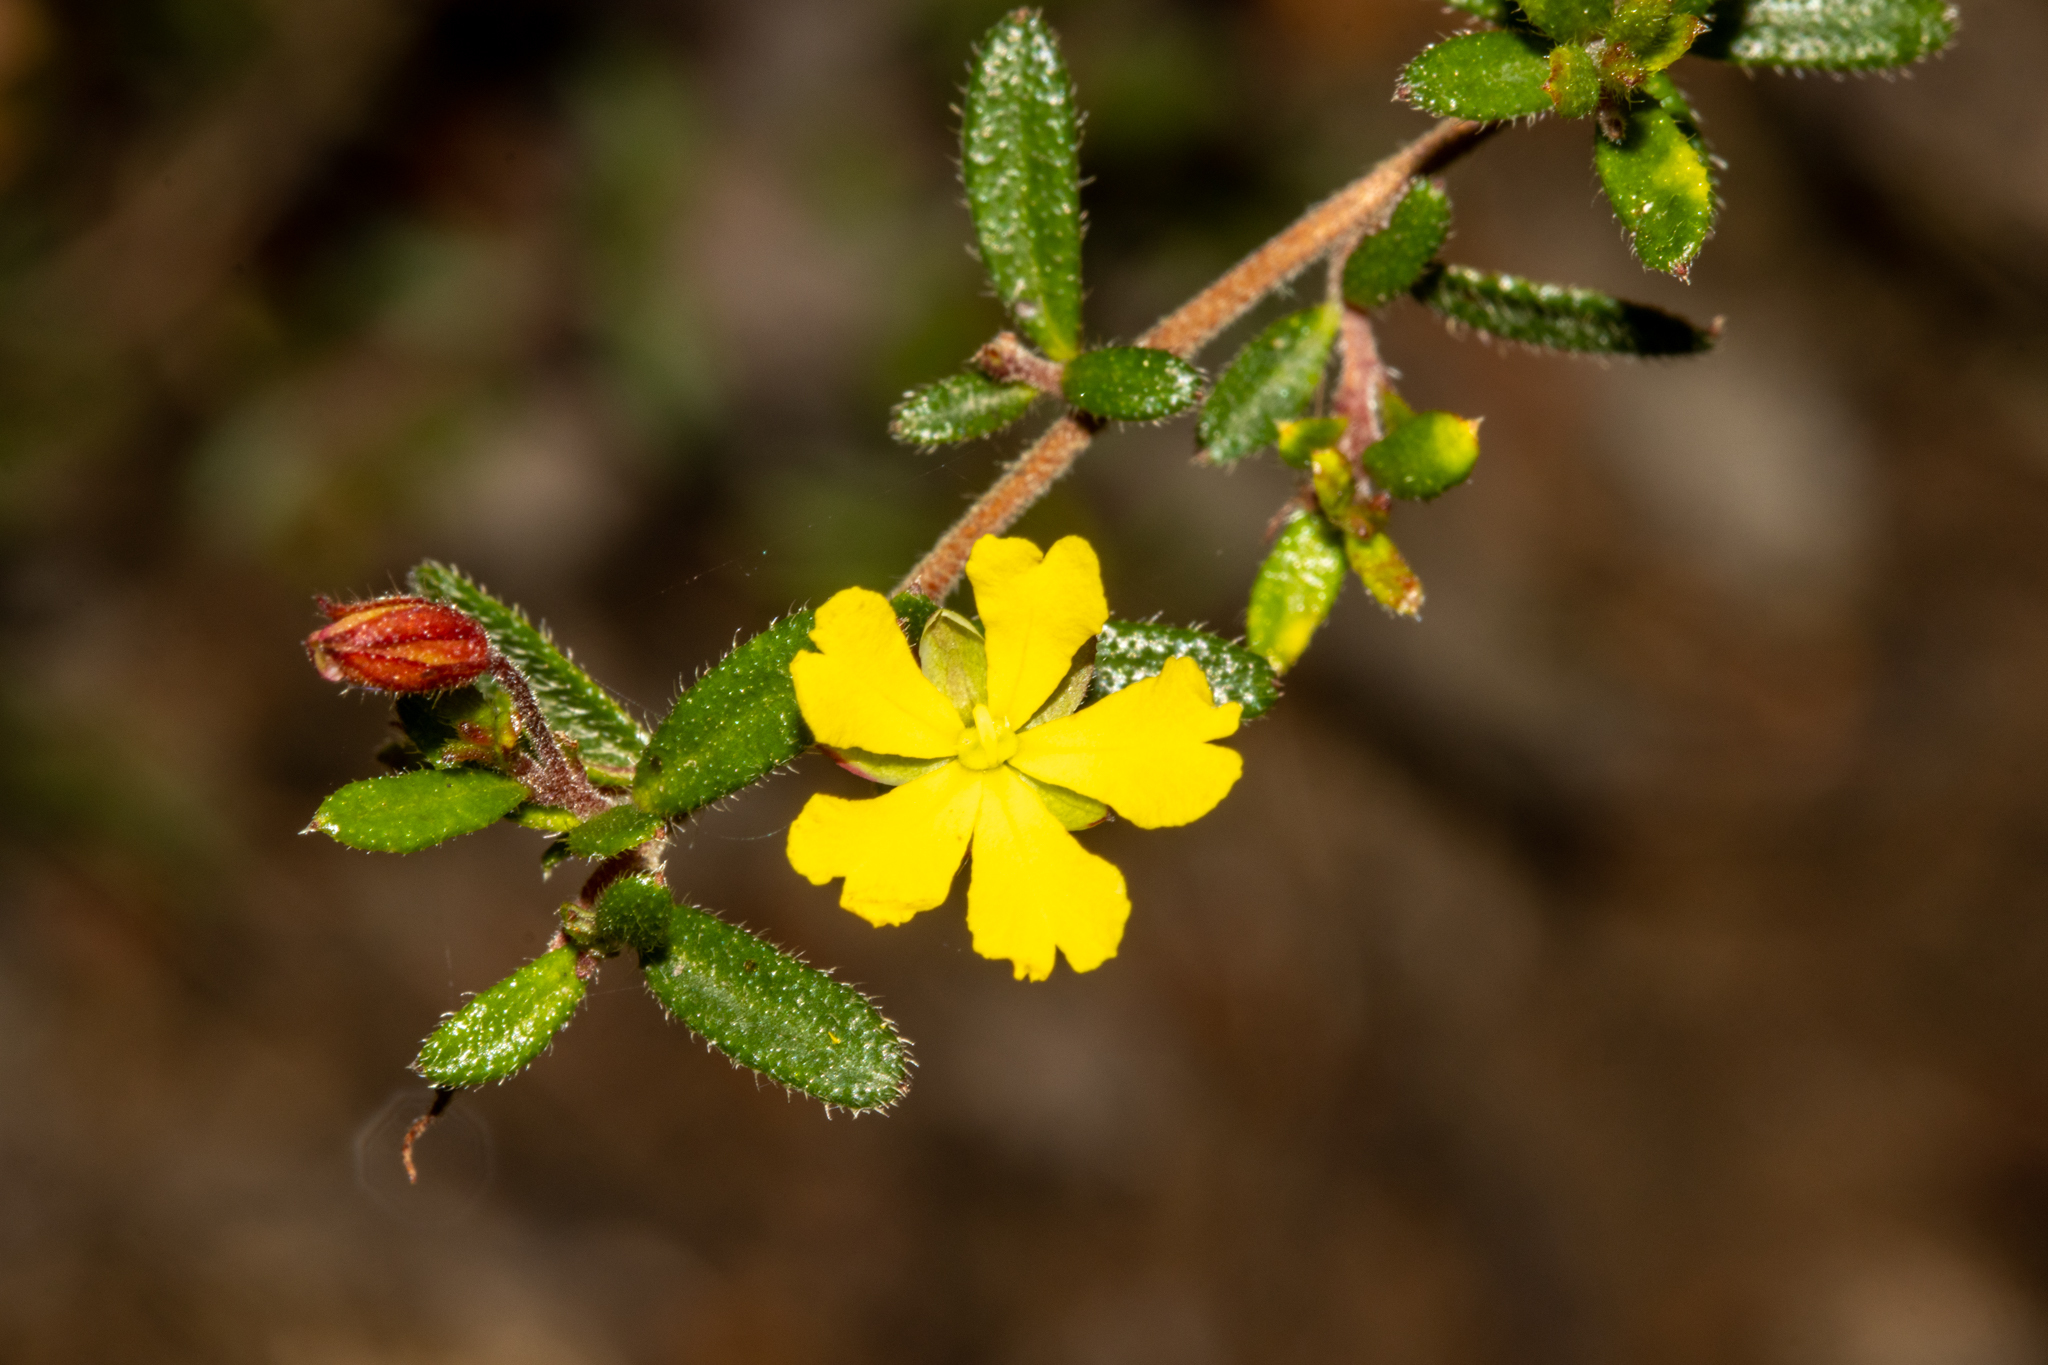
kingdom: Plantae
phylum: Tracheophyta
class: Magnoliopsida
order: Dilleniales
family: Dilleniaceae
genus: Hibbertia
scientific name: Hibbertia empetrifolia
